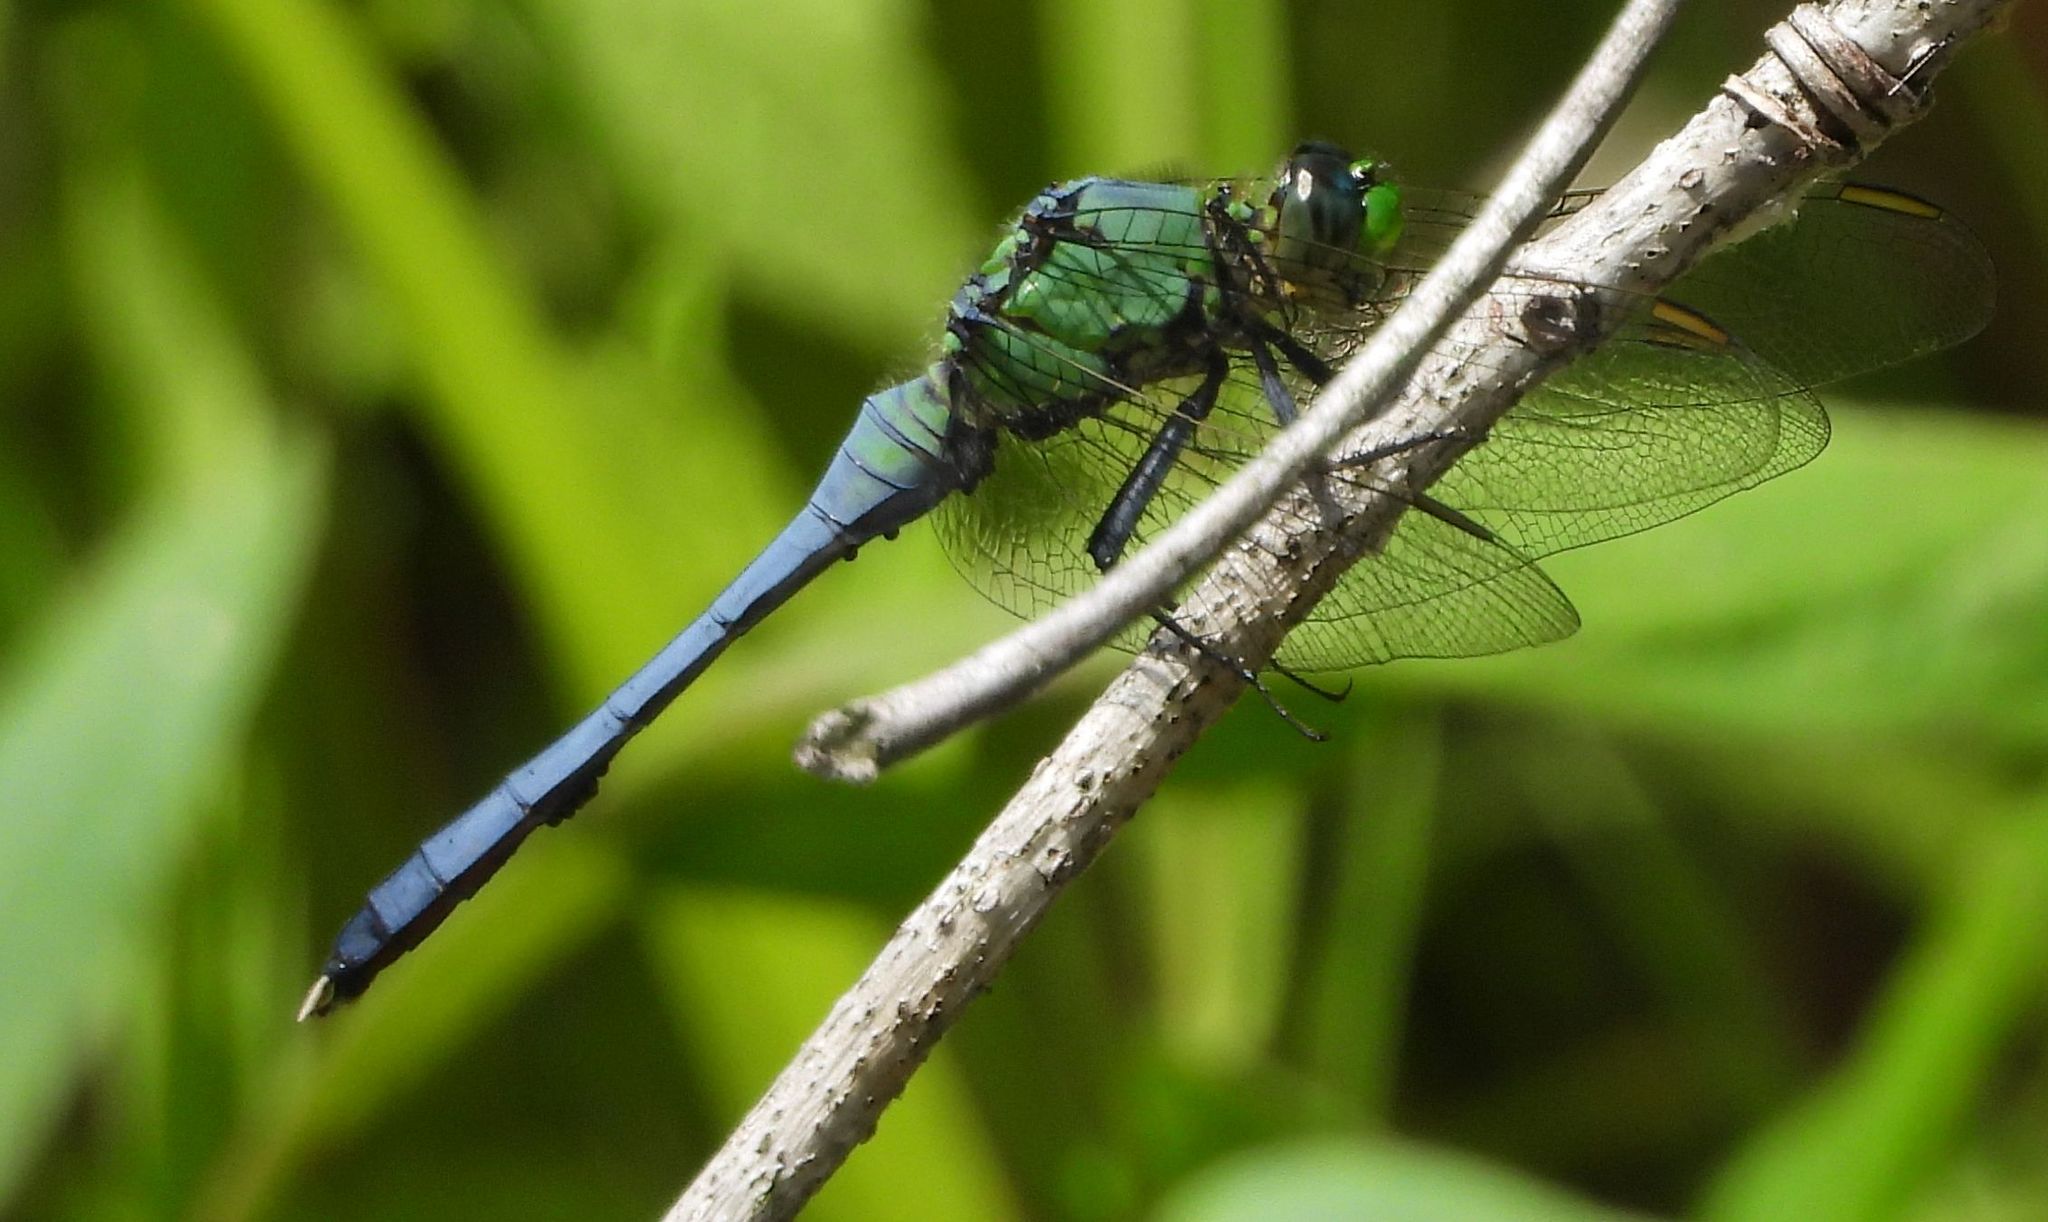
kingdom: Animalia
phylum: Arthropoda
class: Insecta
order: Odonata
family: Libellulidae
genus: Erythemis
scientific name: Erythemis simplicicollis
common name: Eastern pondhawk
